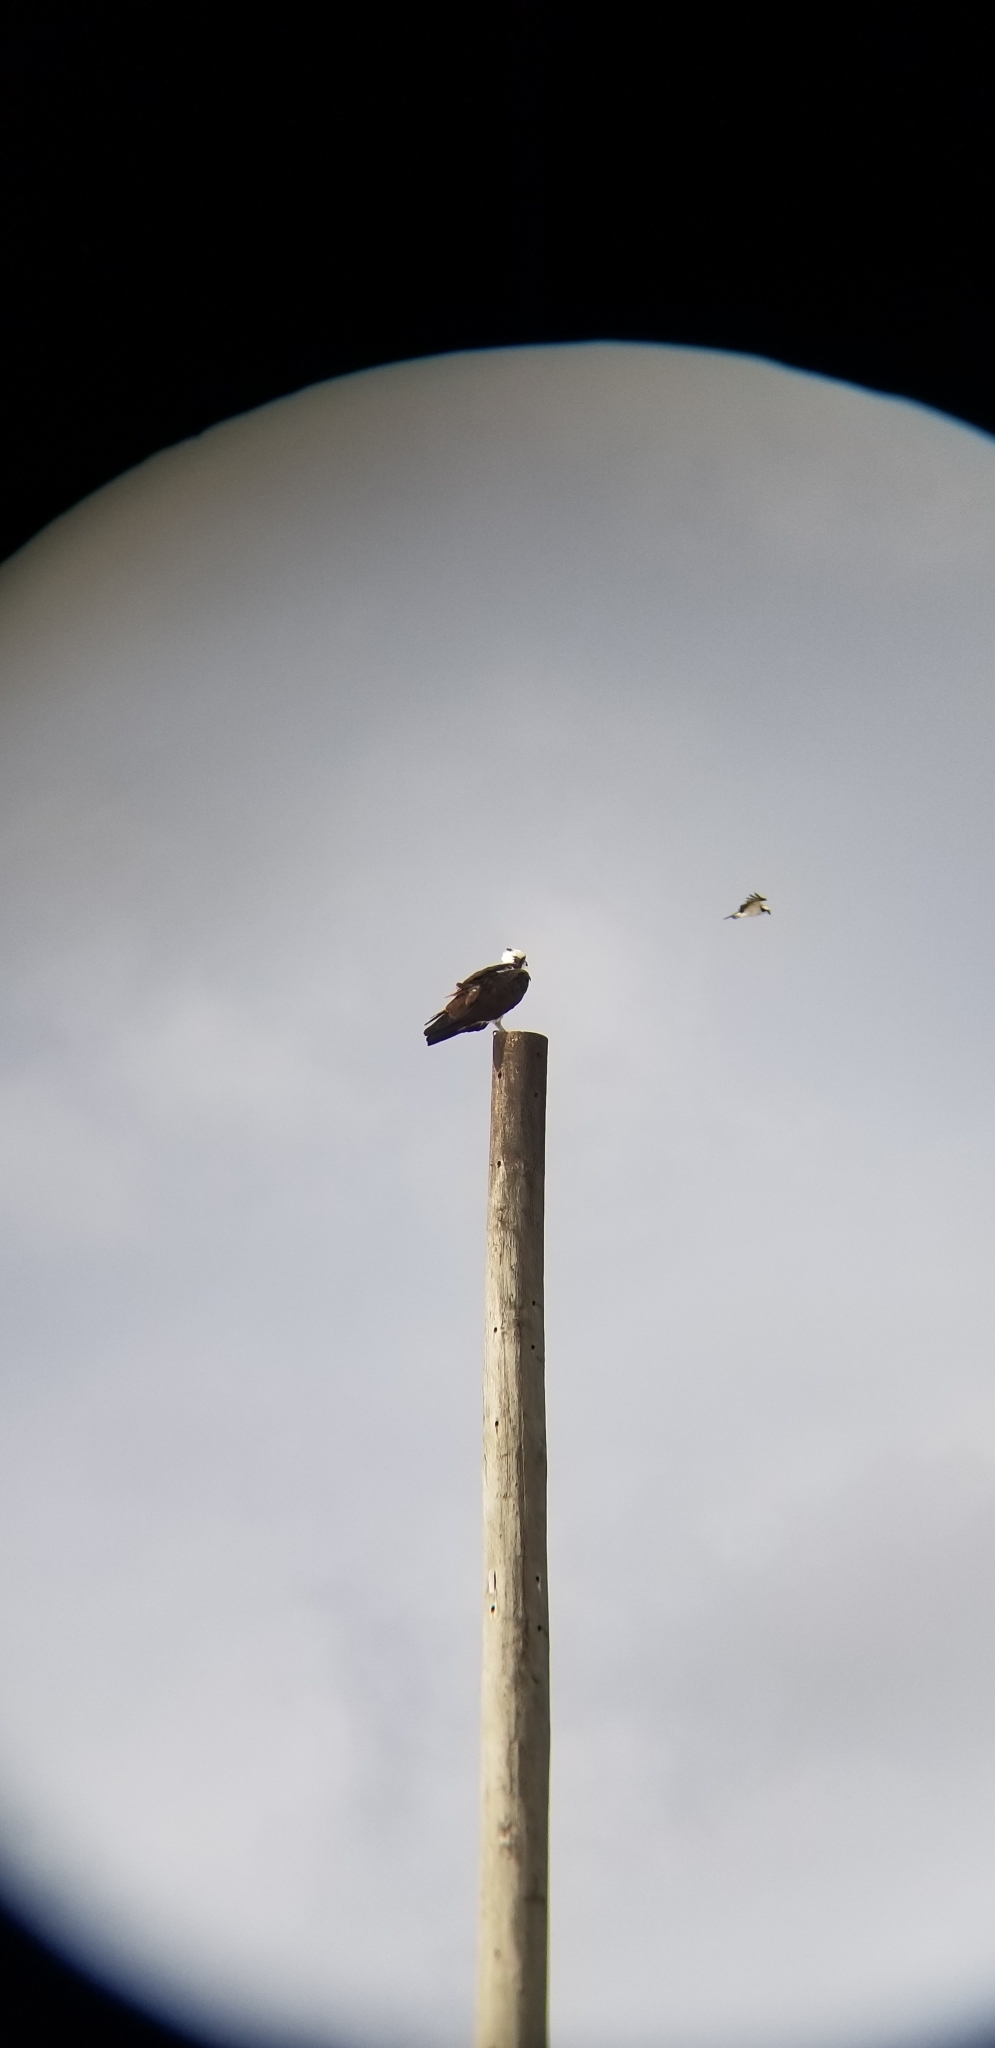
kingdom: Animalia
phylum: Chordata
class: Aves
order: Accipitriformes
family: Pandionidae
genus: Pandion
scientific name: Pandion haliaetus
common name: Osprey
